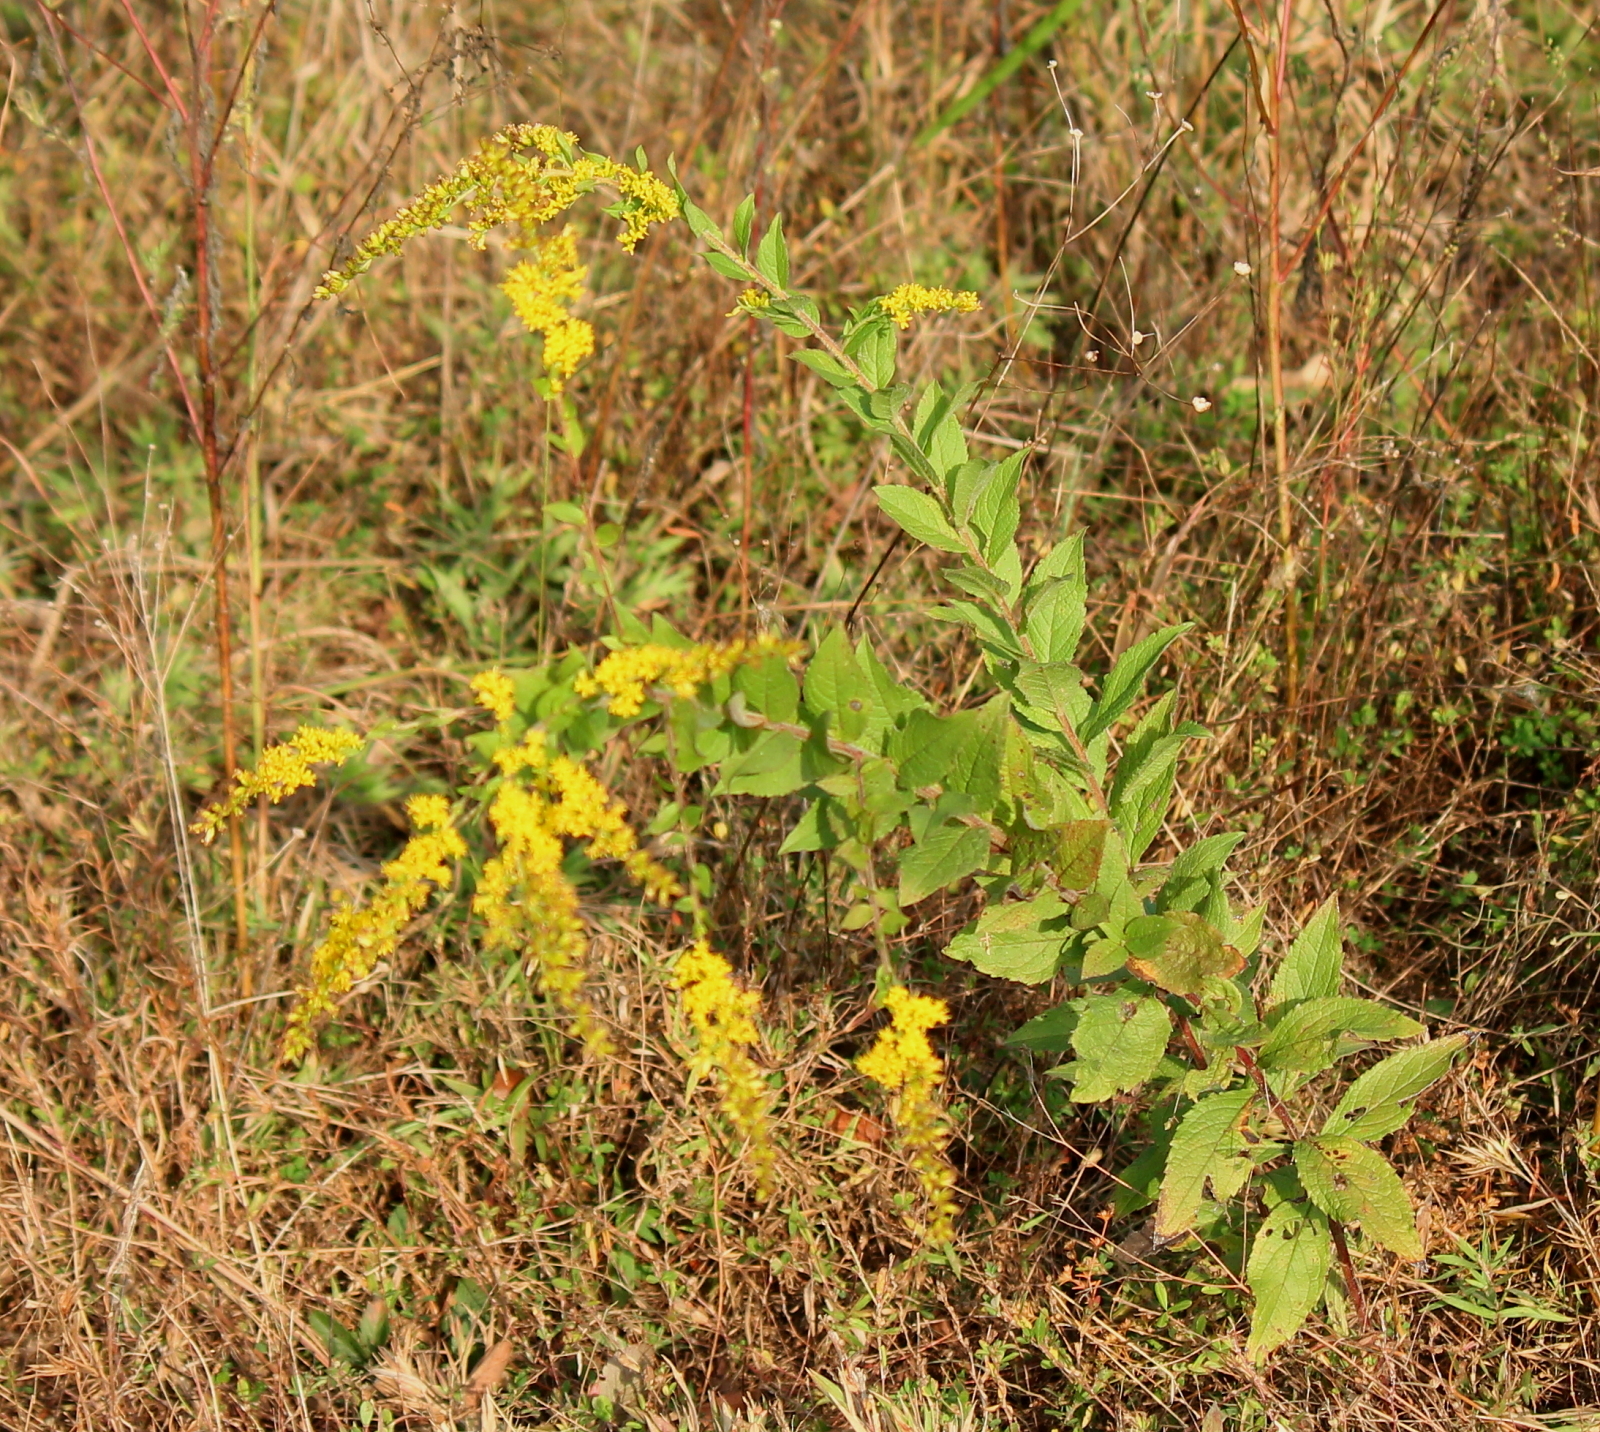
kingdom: Plantae
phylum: Tracheophyta
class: Magnoliopsida
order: Asterales
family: Asteraceae
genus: Solidago
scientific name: Solidago rugosa
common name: Rough-stemmed goldenrod
